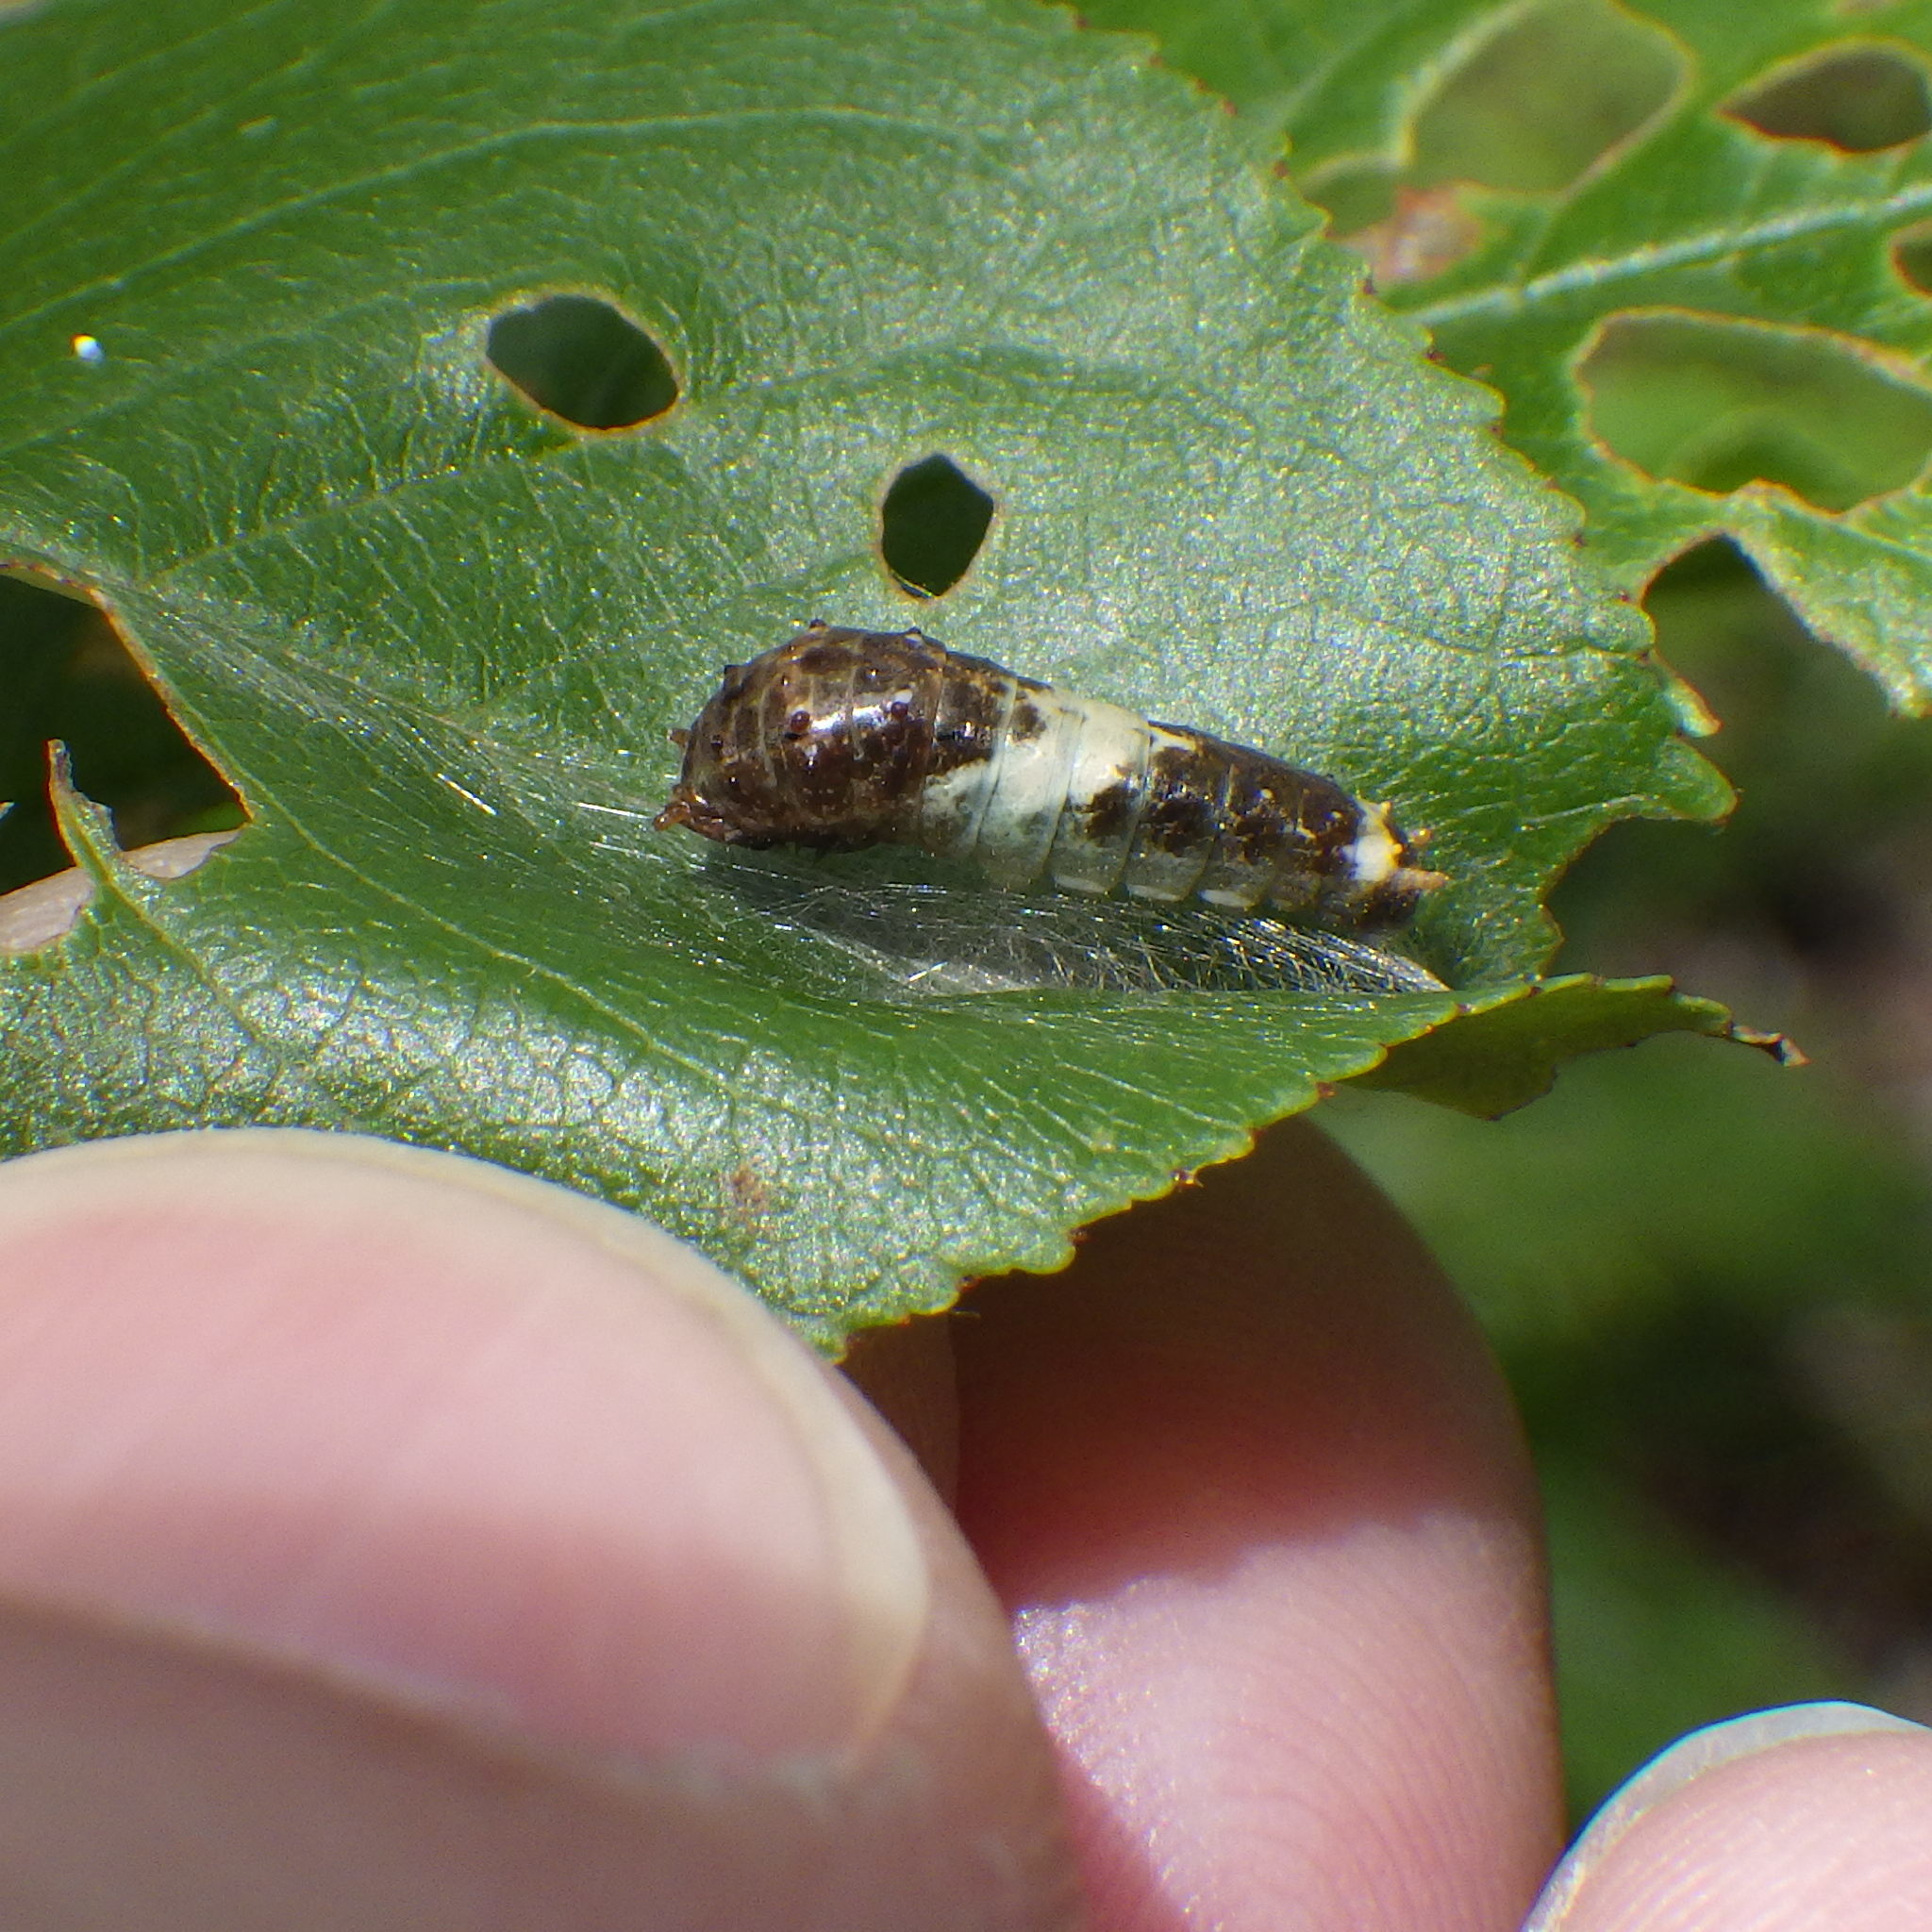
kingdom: Animalia
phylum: Arthropoda
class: Insecta
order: Lepidoptera
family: Papilionidae
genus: Papilio
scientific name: Papilio canadensis
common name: Canadian tiger swallowtail
